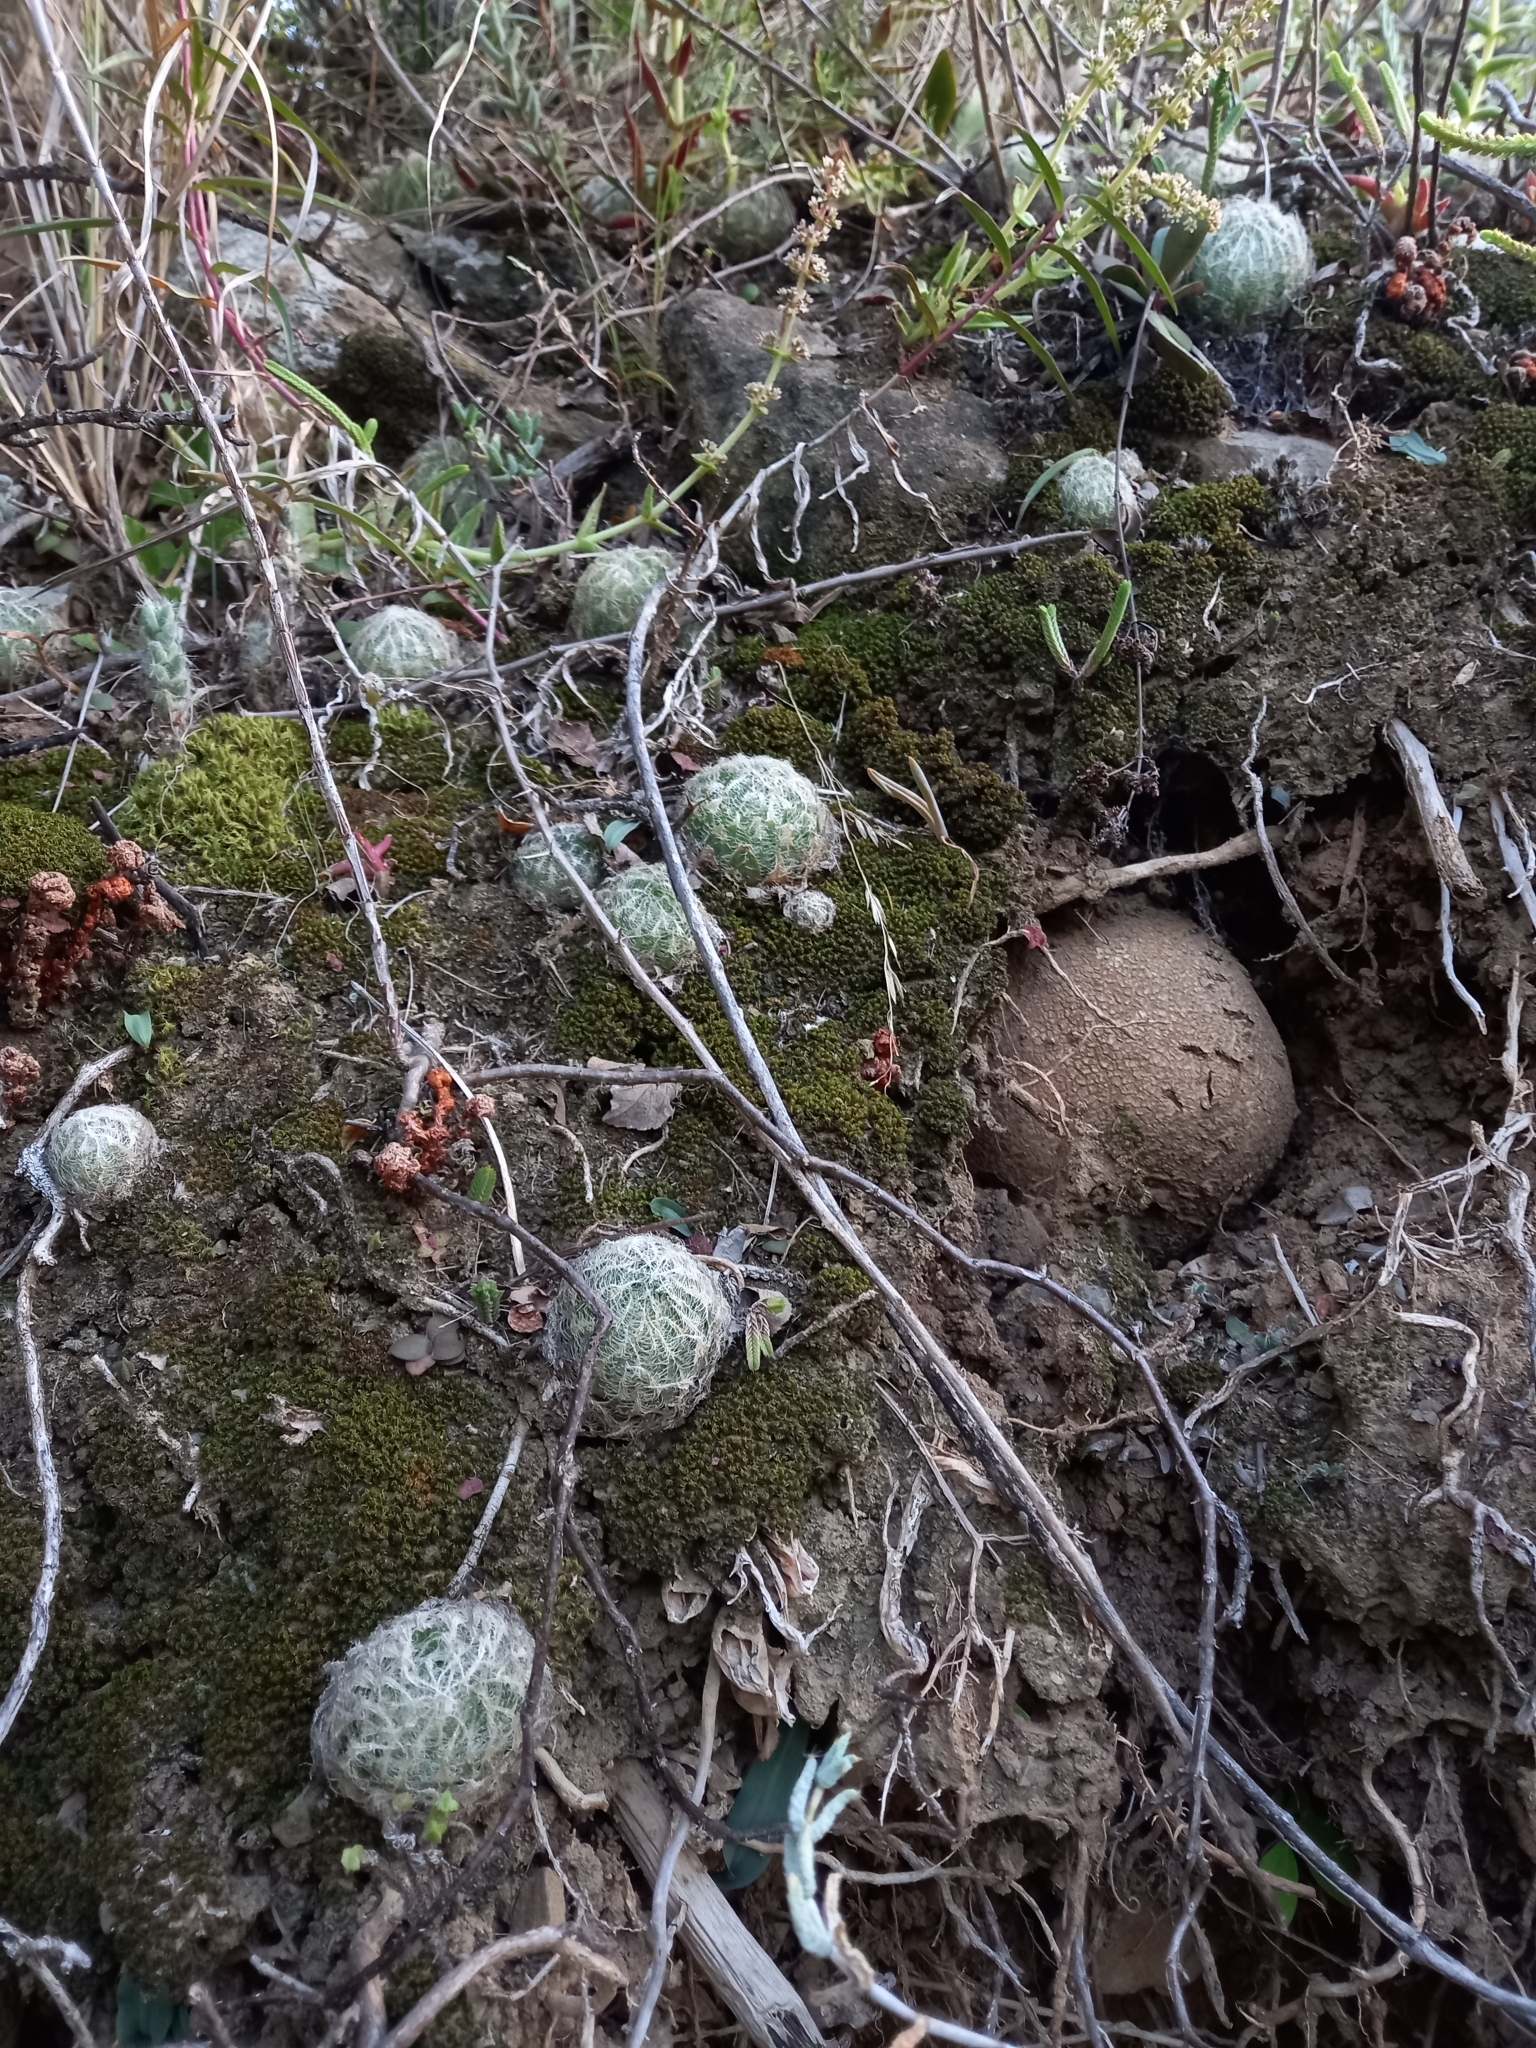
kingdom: Plantae
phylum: Tracheophyta
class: Liliopsida
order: Asparagales
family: Asphodelaceae
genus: Haworthia
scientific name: Haworthia bolusii
